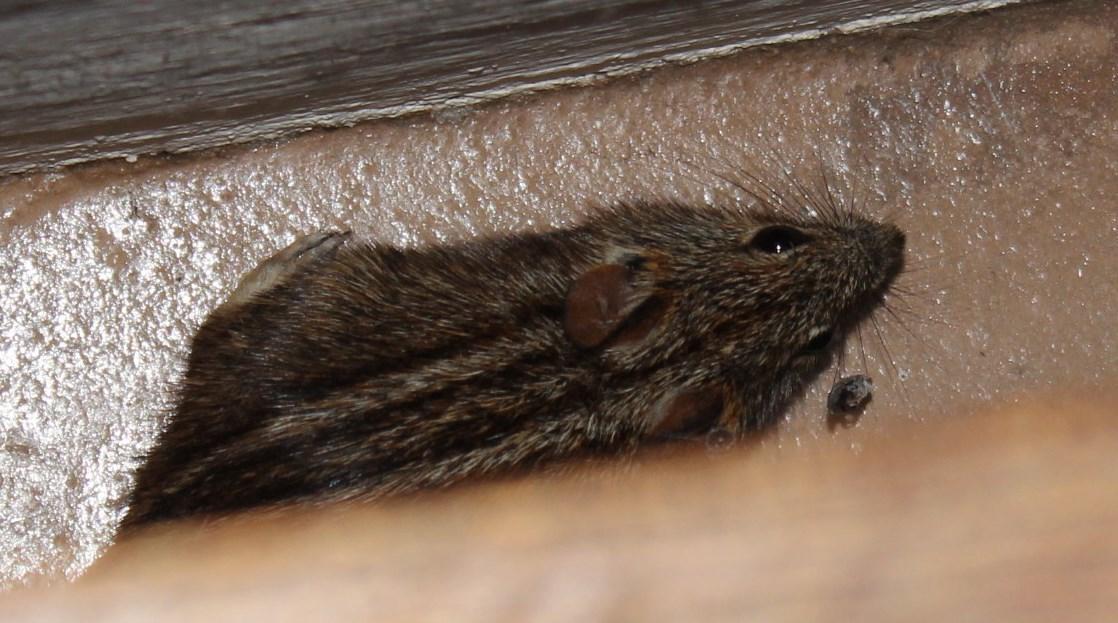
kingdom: Animalia
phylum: Chordata
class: Mammalia
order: Rodentia
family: Muridae
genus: Rhabdomys
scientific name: Rhabdomys pumilio
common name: Xeric four-striped grass rat
